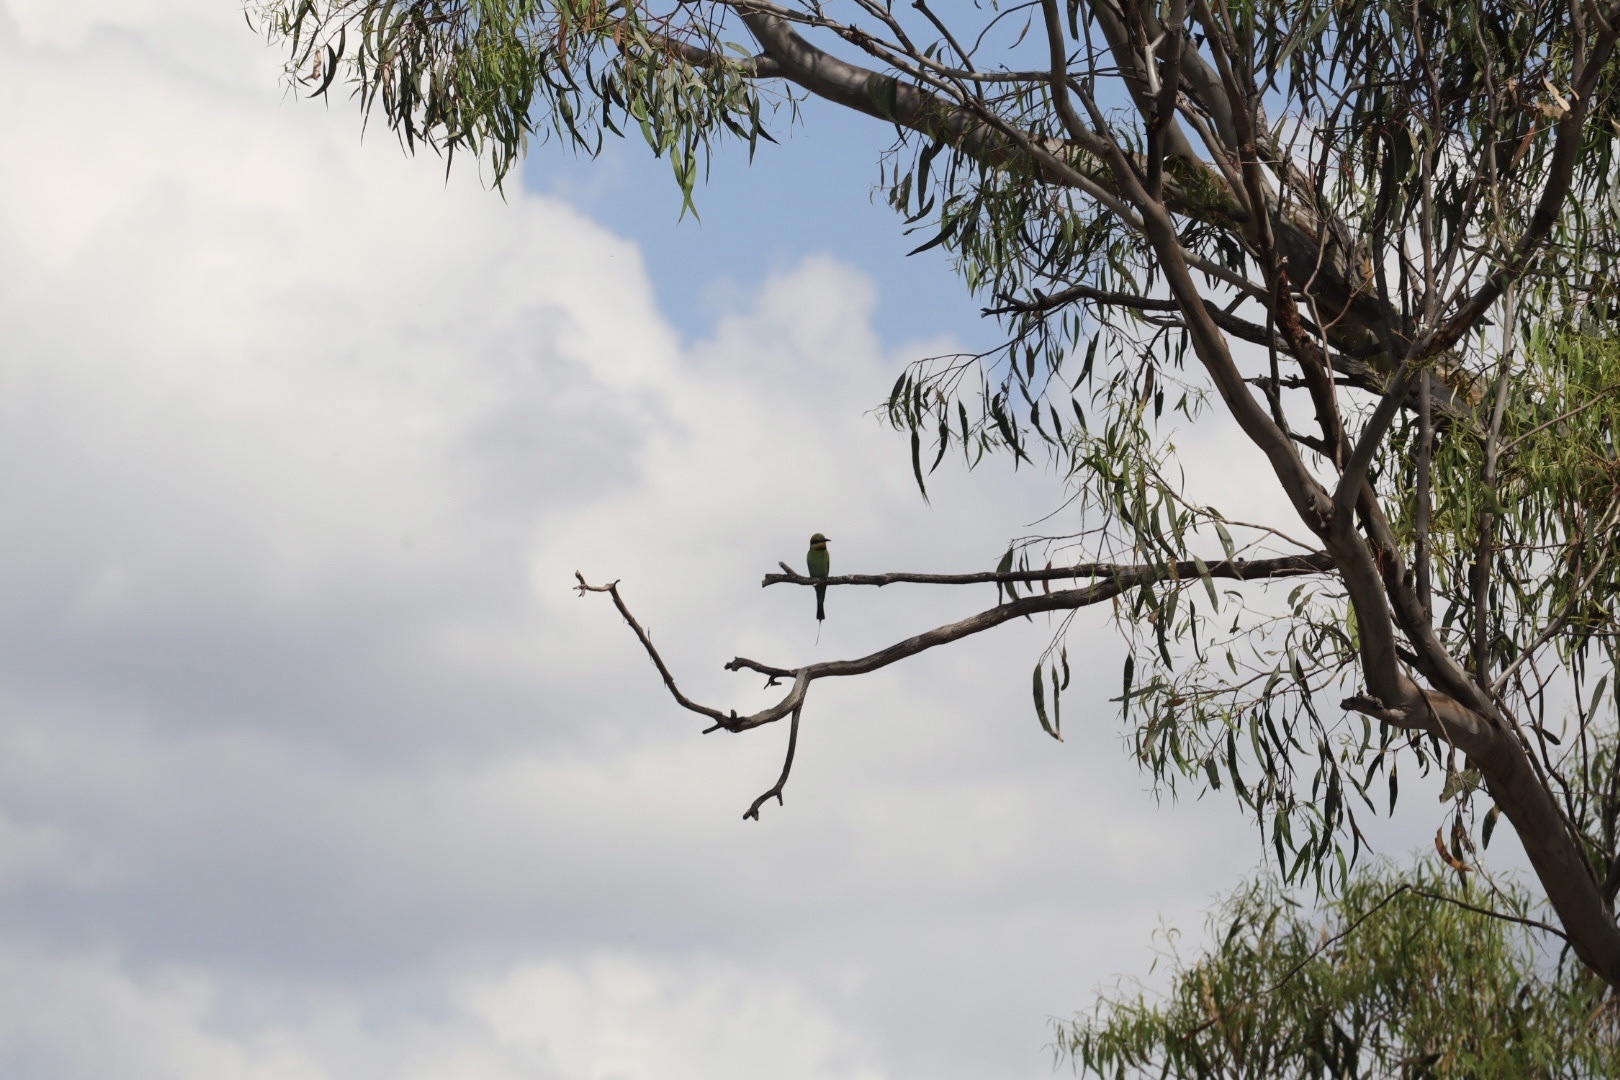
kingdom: Animalia
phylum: Chordata
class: Aves
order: Coraciiformes
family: Meropidae
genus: Merops
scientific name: Merops ornatus
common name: Rainbow bee-eater
